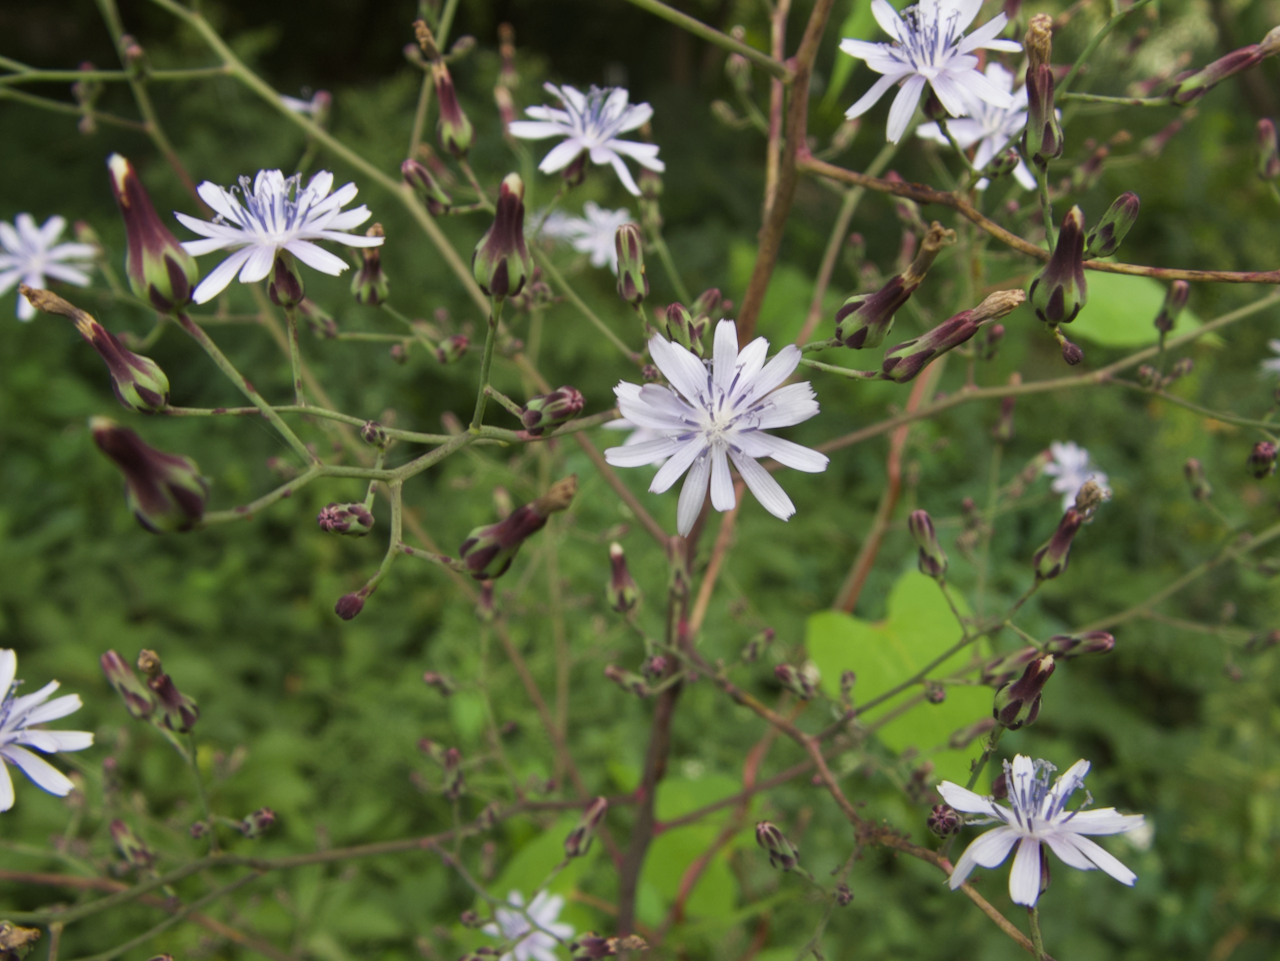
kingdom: Plantae
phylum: Tracheophyta
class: Magnoliopsida
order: Asterales
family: Asteraceae
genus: Lactuca
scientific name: Lactuca floridana
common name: Woodland lettuce
